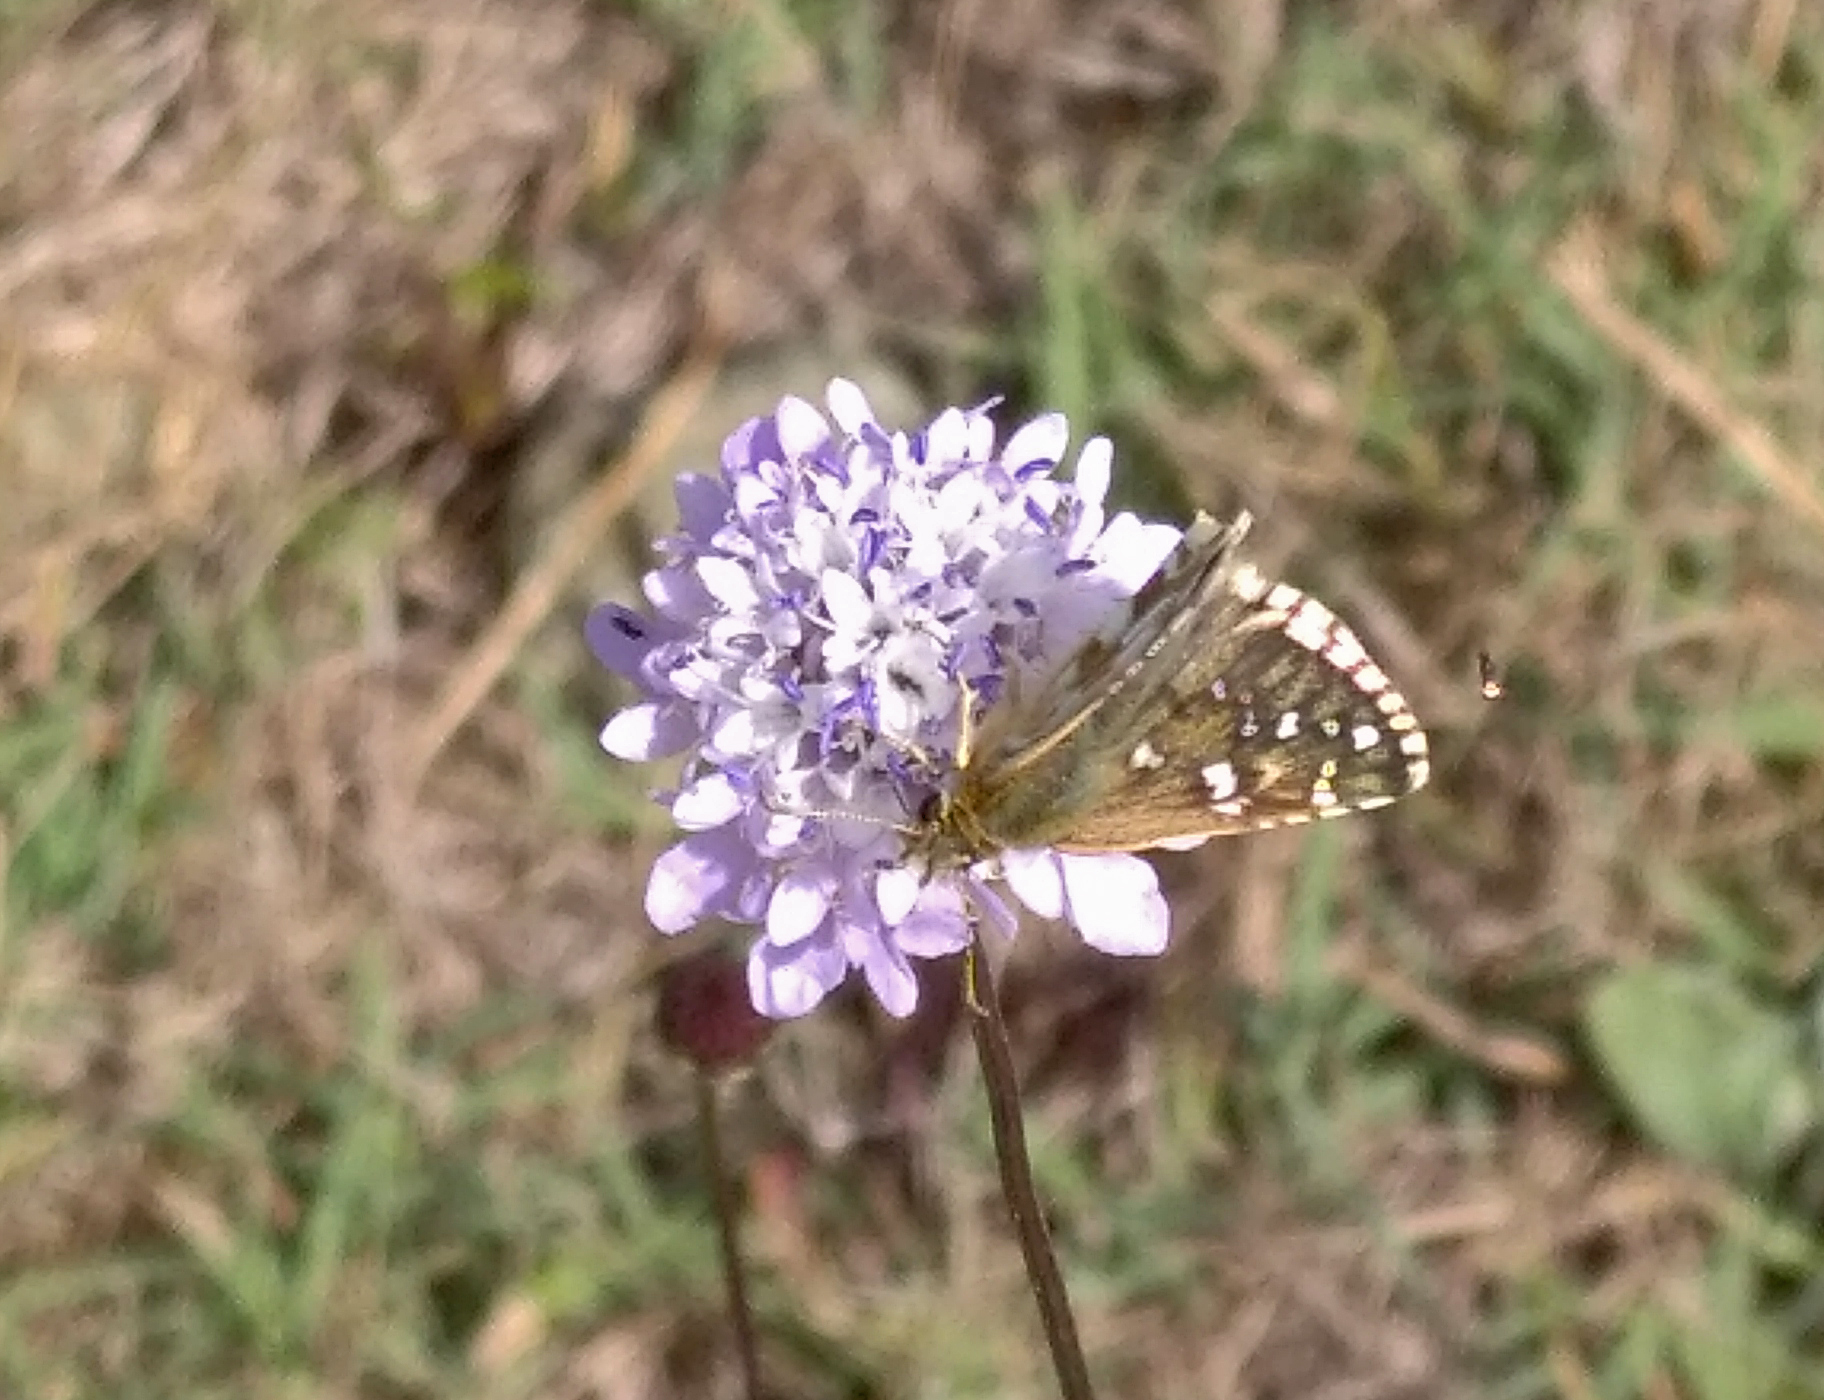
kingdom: Animalia
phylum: Arthropoda
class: Insecta
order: Lepidoptera
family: Hesperiidae
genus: Pyrgus
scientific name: Pyrgus armoricanus
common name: Oberthür's grizzled skipper
